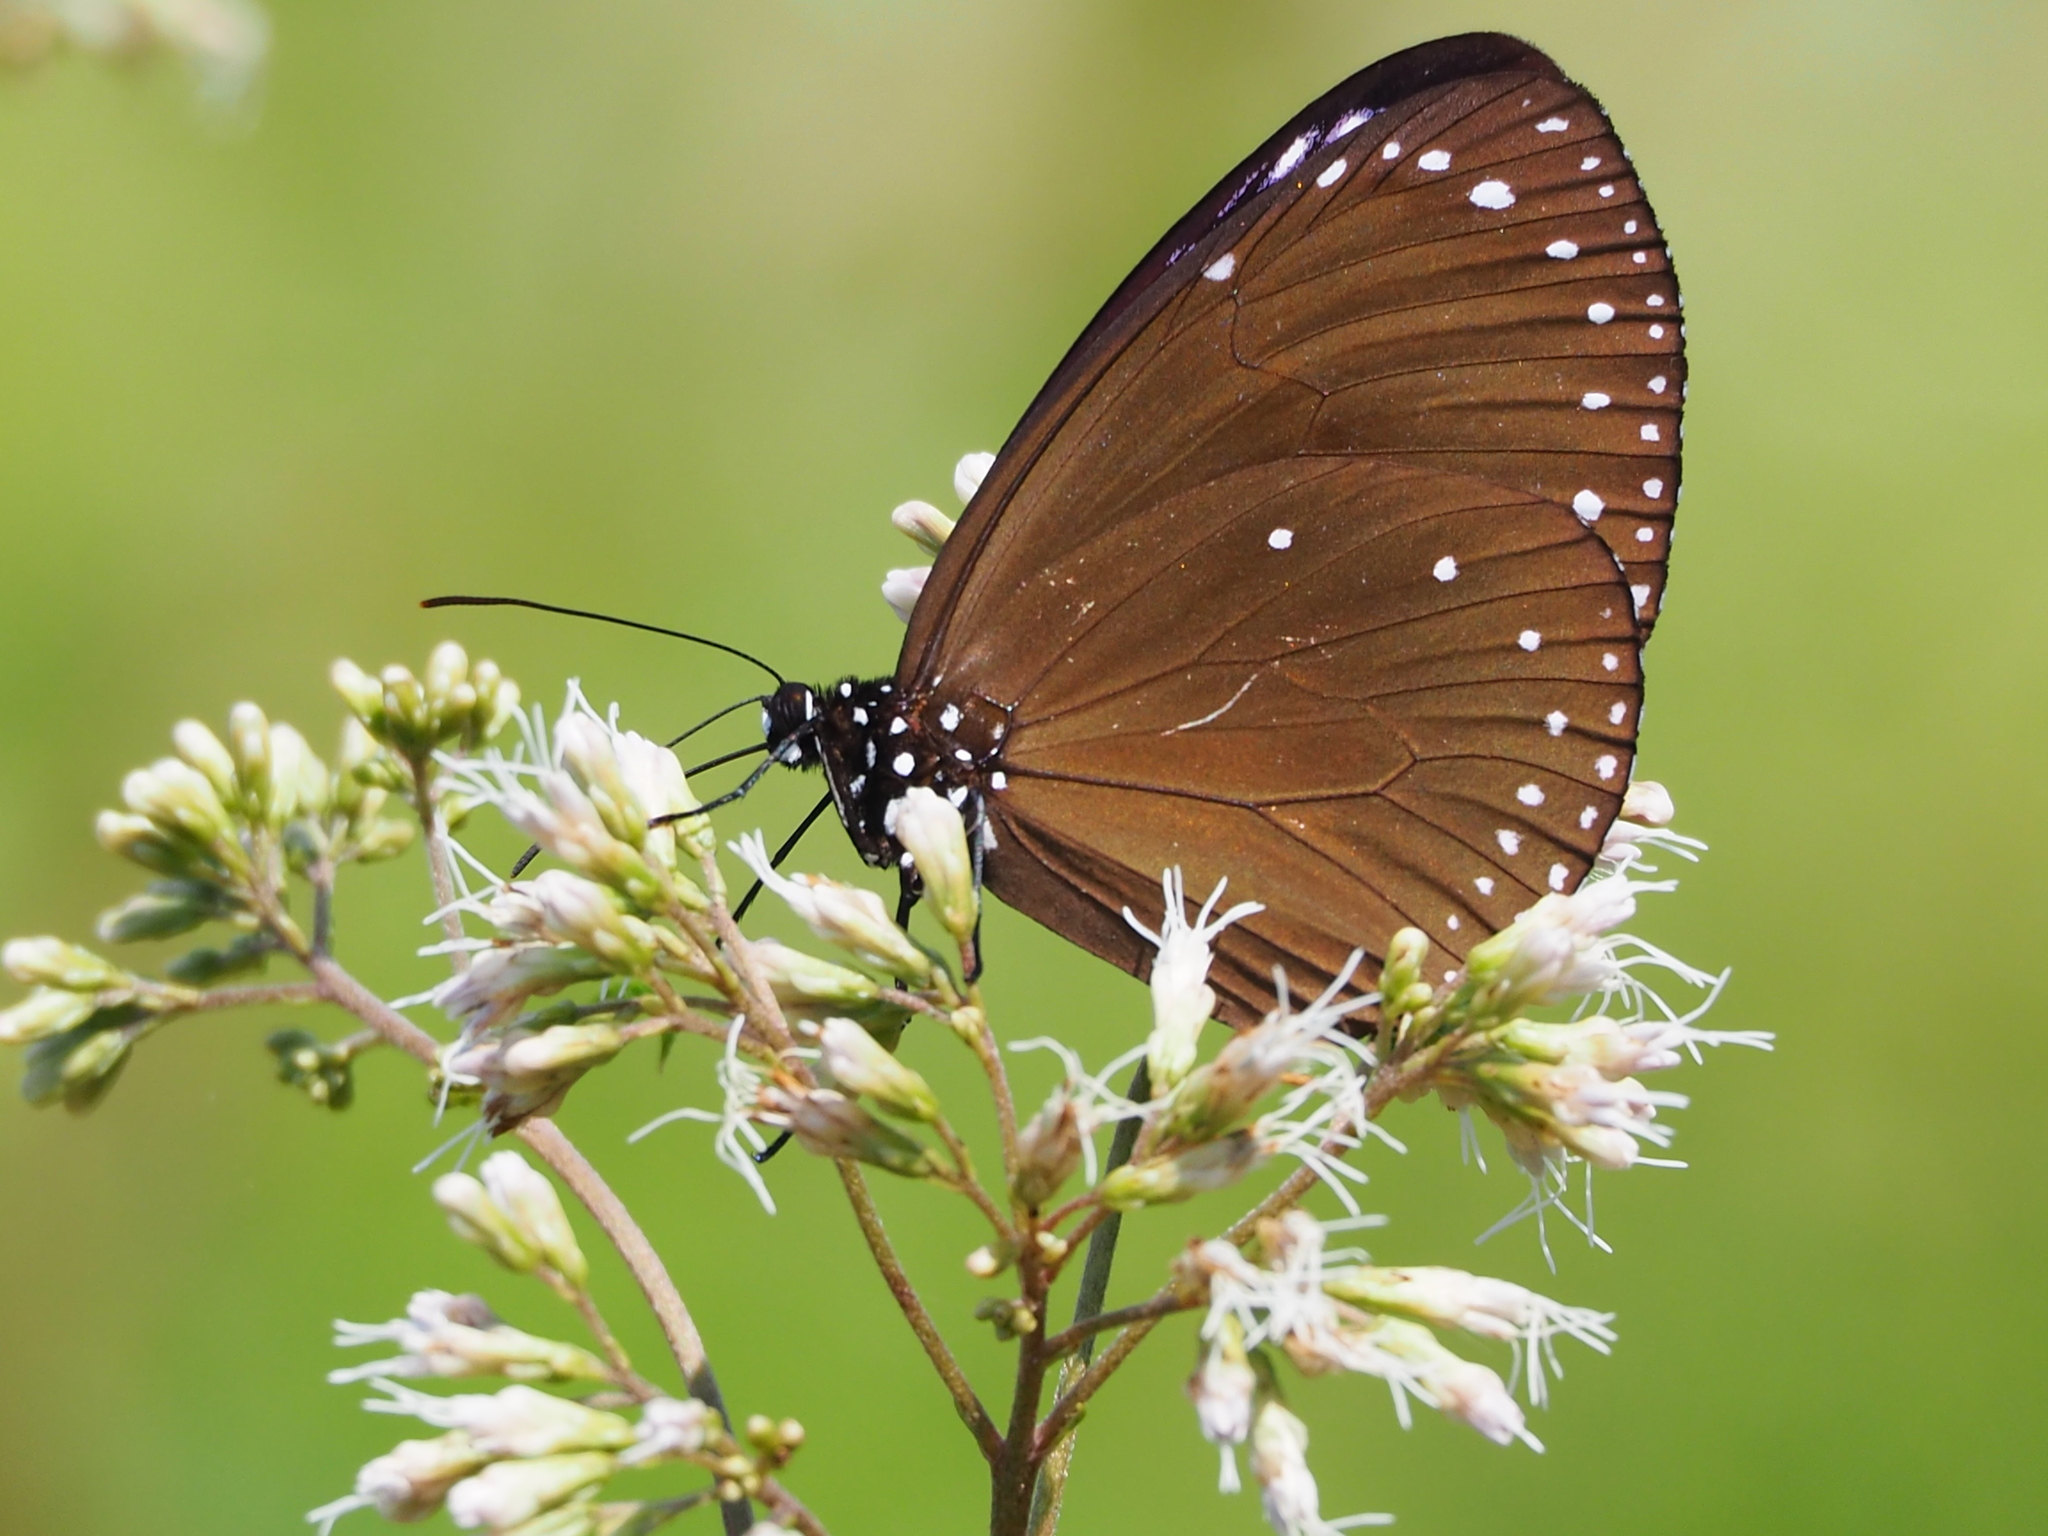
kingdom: Animalia
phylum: Arthropoda
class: Insecta
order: Lepidoptera
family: Nymphalidae
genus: Euploea
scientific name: Euploea tulliolus
